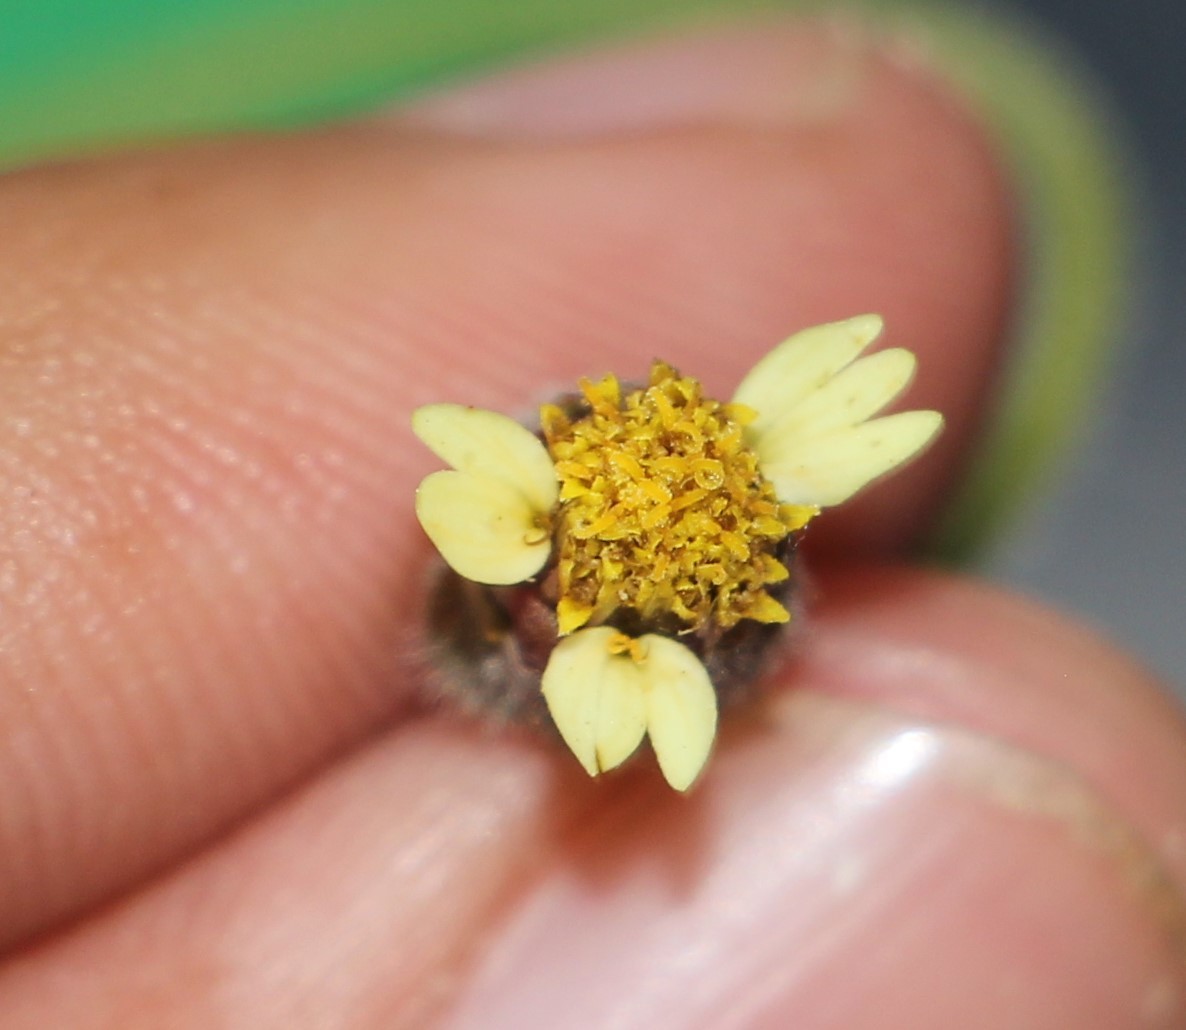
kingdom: Plantae
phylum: Tracheophyta
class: Magnoliopsida
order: Asterales
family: Asteraceae
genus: Tridax
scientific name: Tridax procumbens
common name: Coatbuttons
